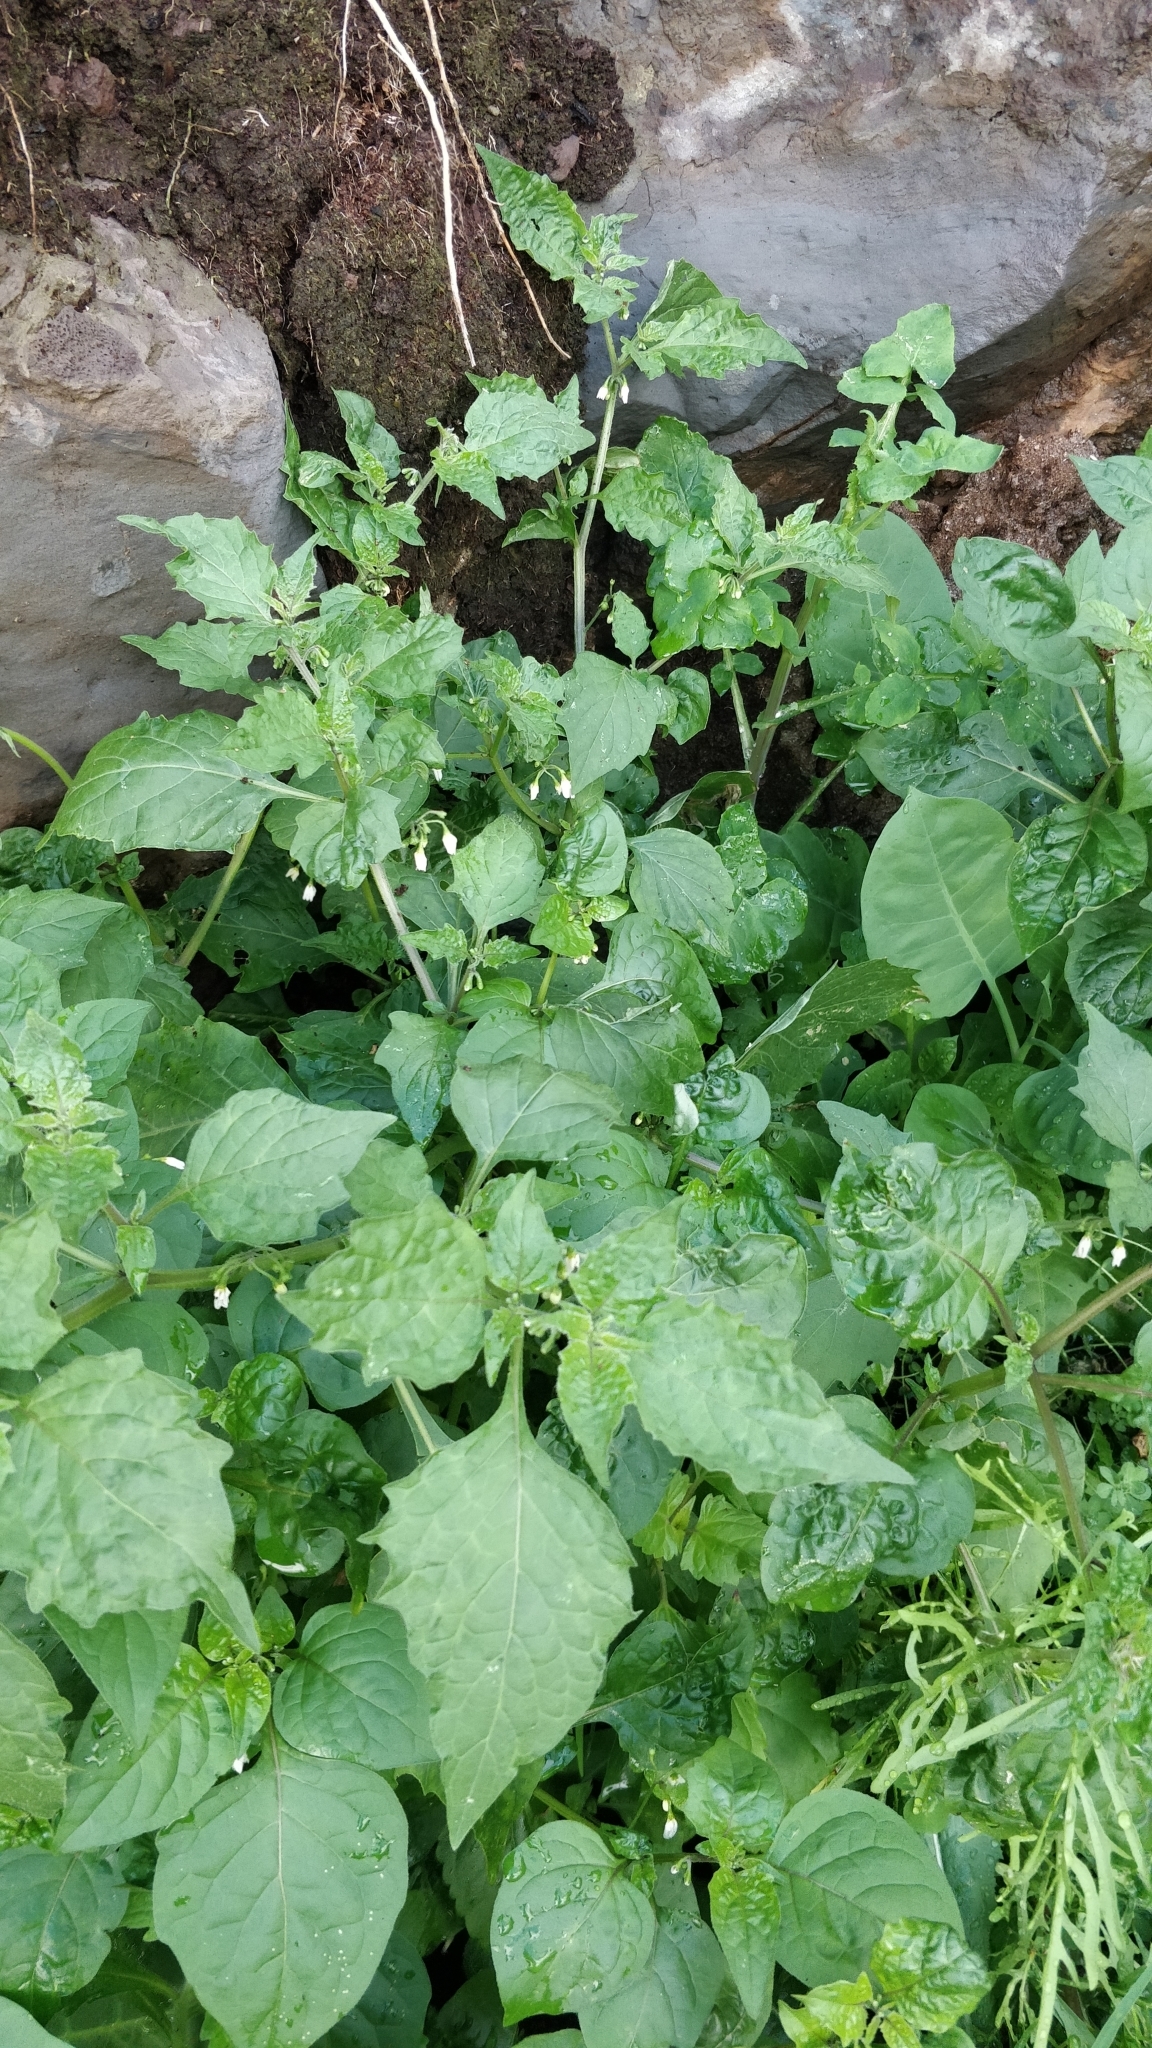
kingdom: Plantae
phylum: Tracheophyta
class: Magnoliopsida
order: Solanales
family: Solanaceae
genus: Solanum
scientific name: Solanum nigrum
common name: Black nightshade
